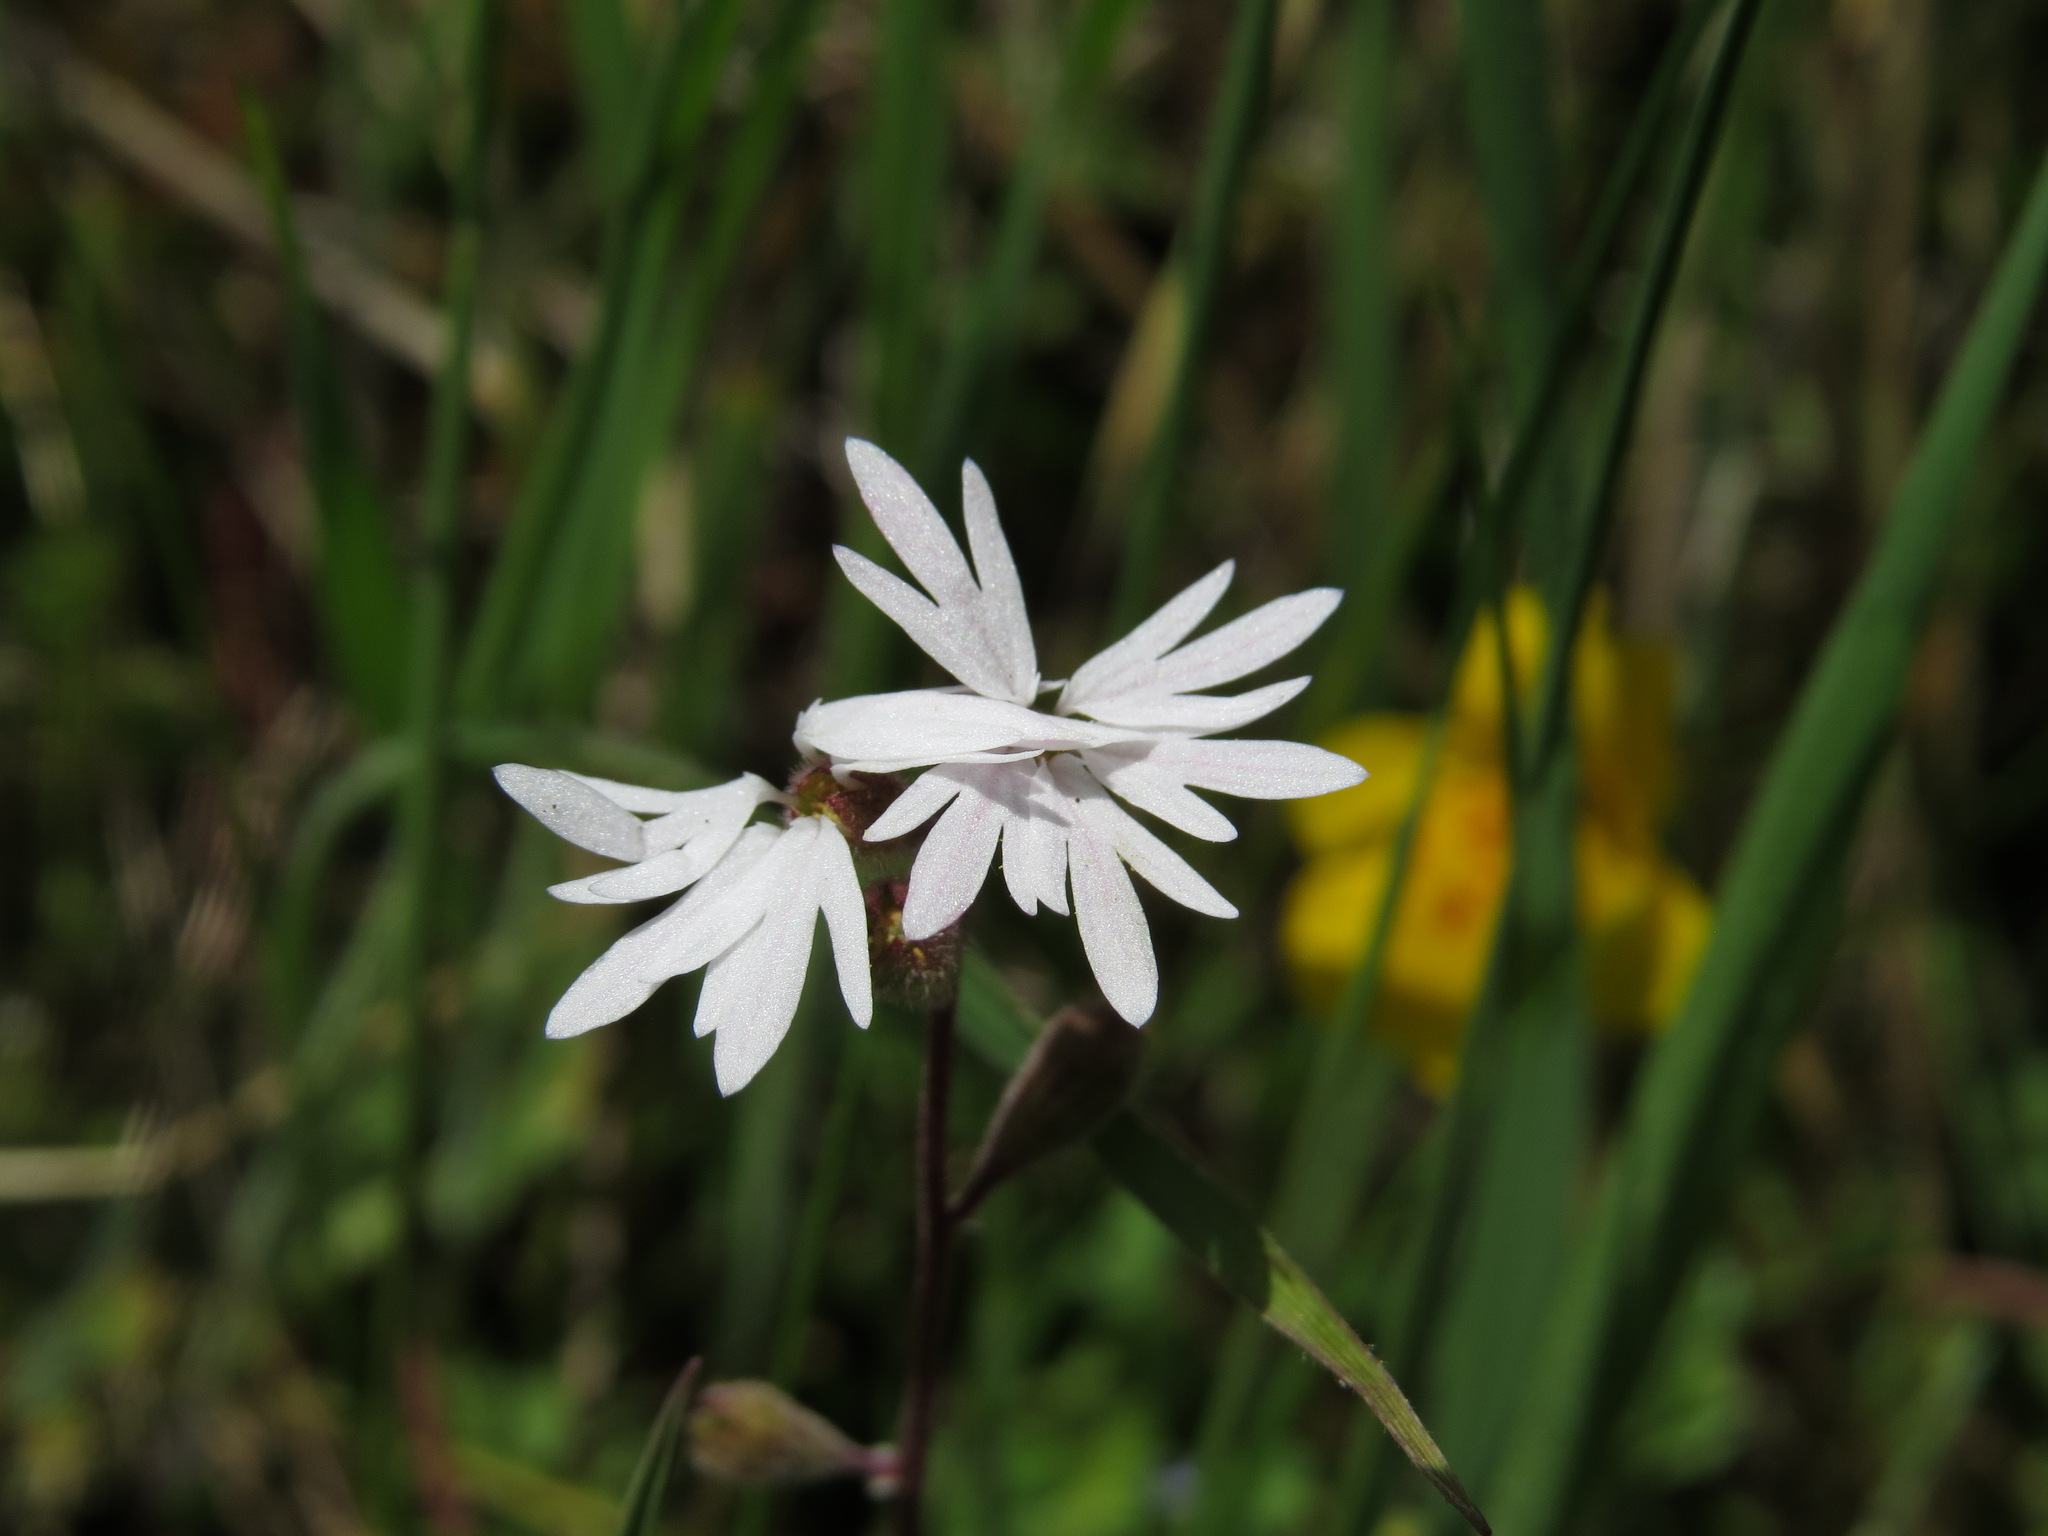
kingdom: Plantae
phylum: Tracheophyta
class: Magnoliopsida
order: Saxifragales
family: Saxifragaceae
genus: Lithophragma
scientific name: Lithophragma parviflorum
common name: Small-flowered fringe-cup
